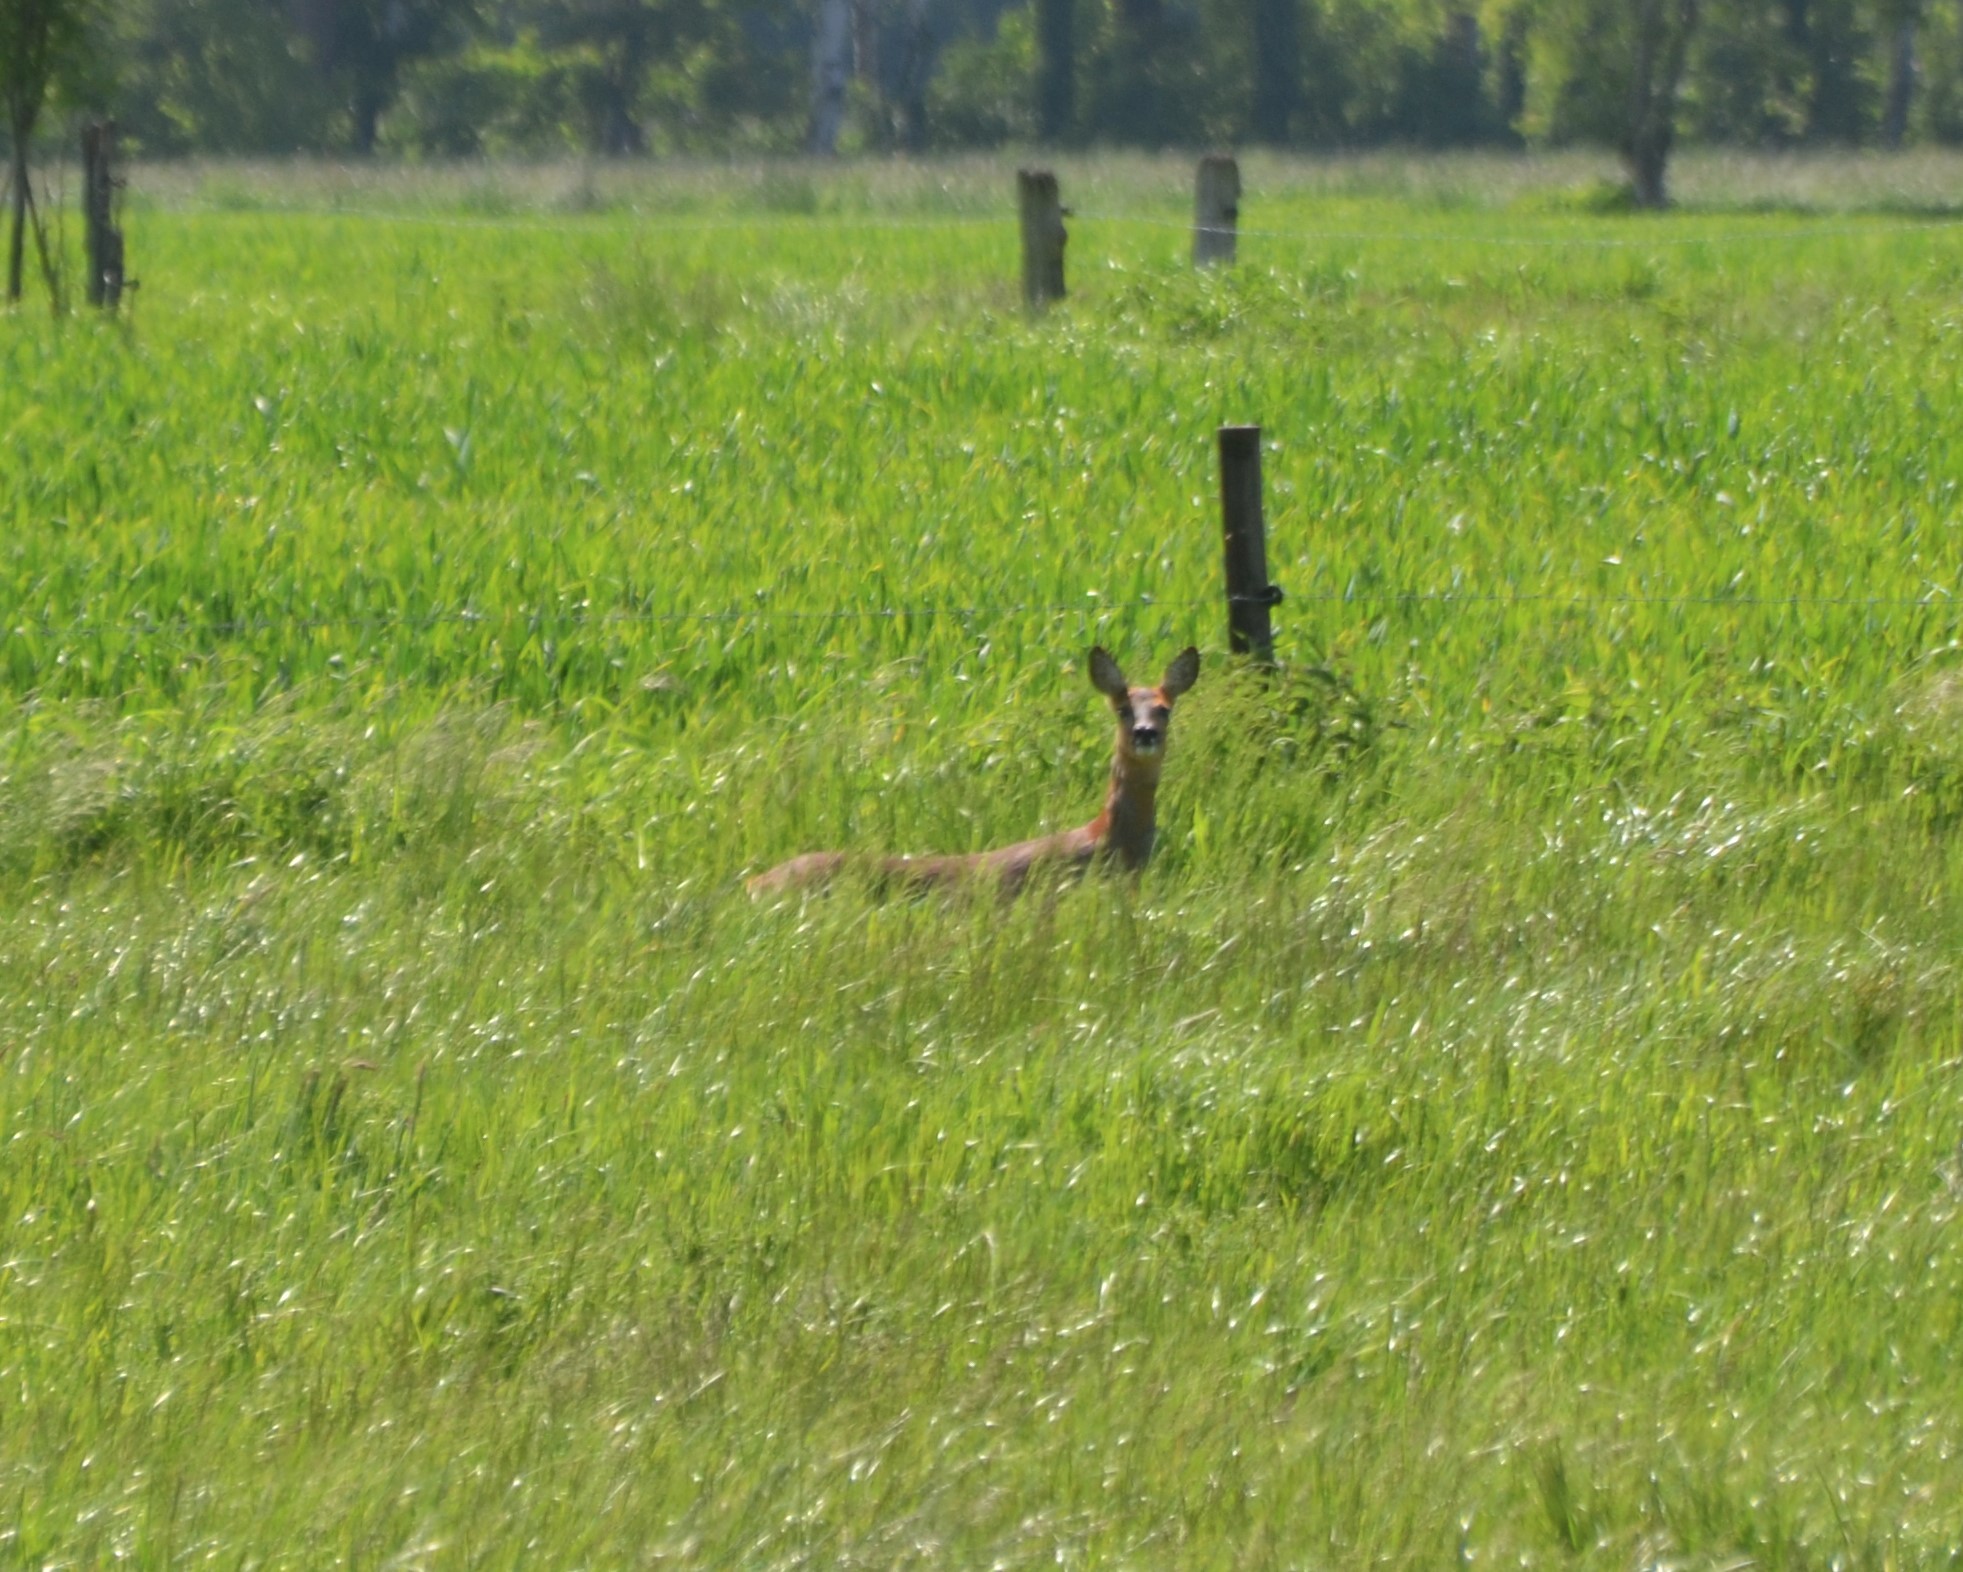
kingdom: Animalia
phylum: Chordata
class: Mammalia
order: Artiodactyla
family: Cervidae
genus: Capreolus
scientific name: Capreolus capreolus
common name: Western roe deer
